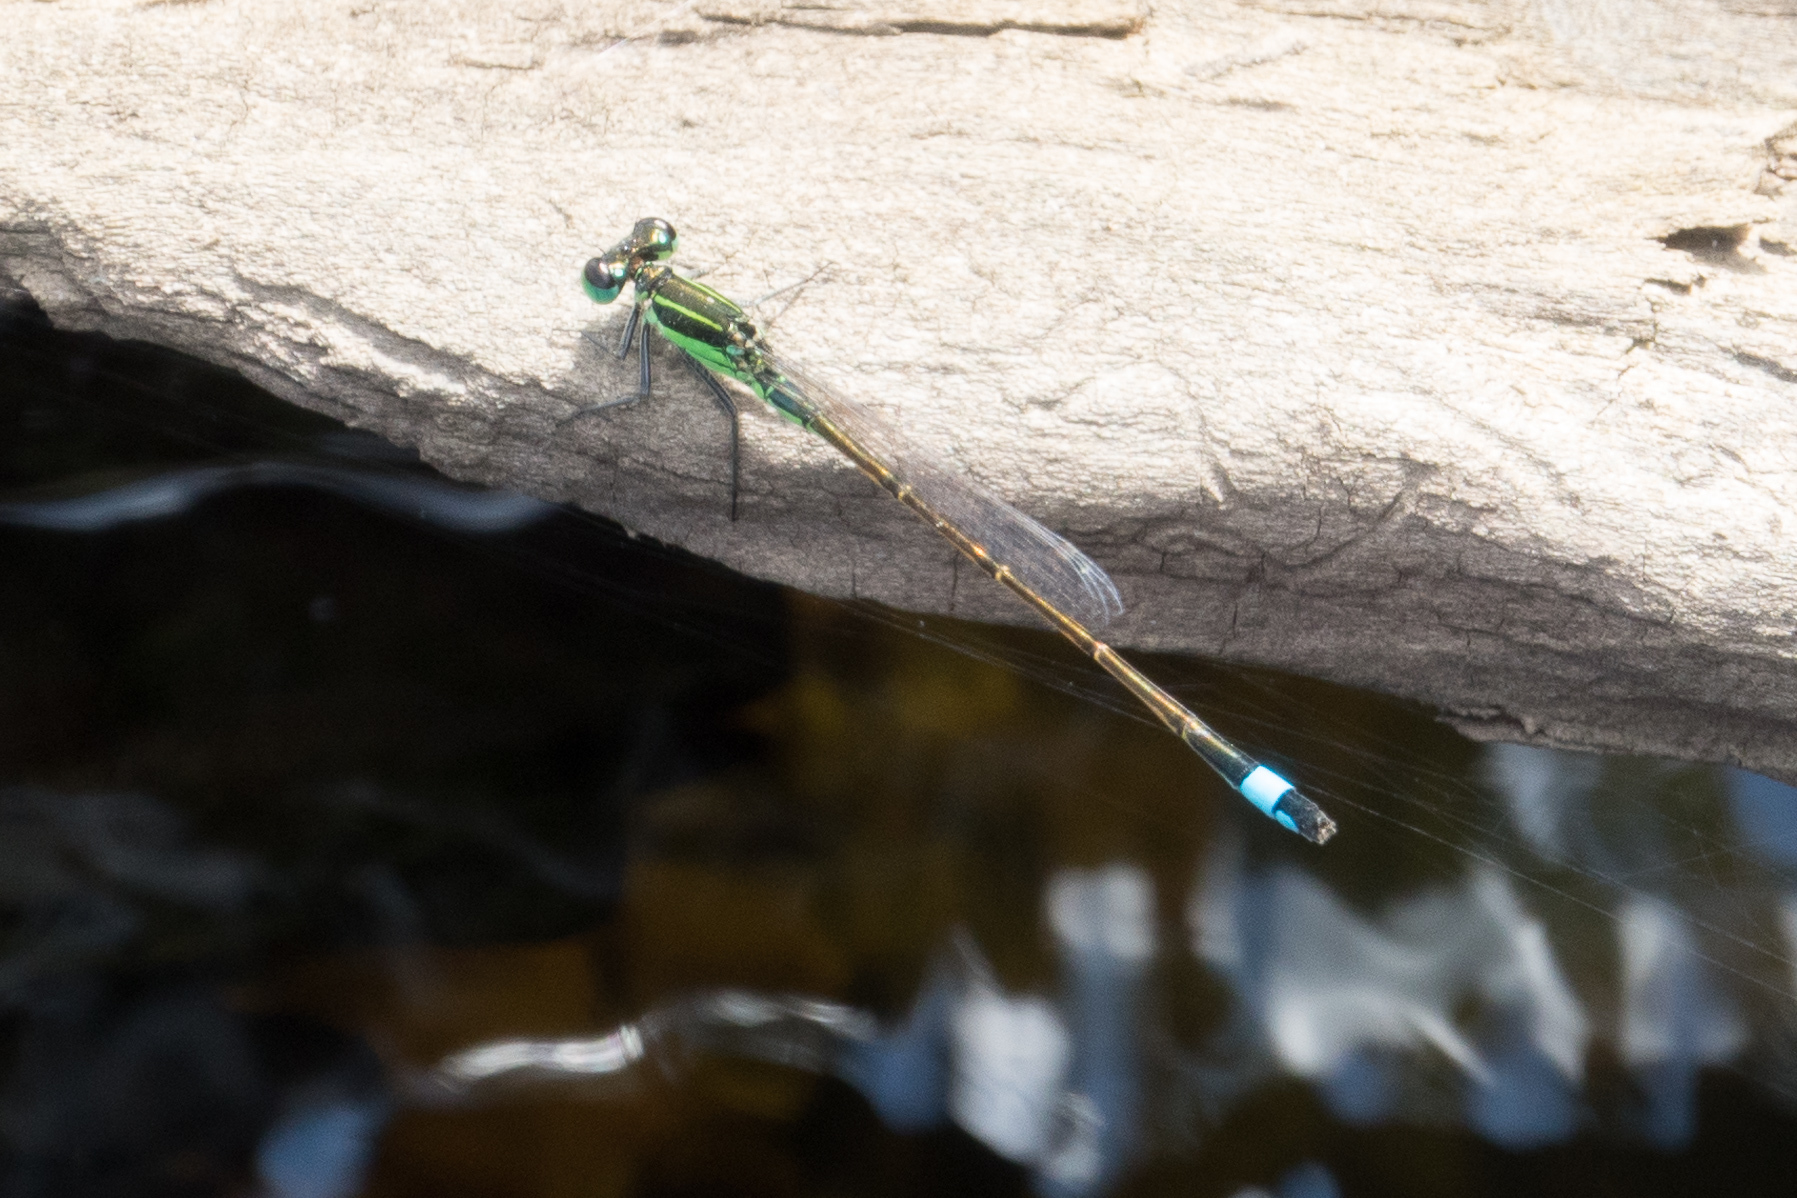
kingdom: Animalia
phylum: Arthropoda
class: Insecta
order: Odonata
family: Coenagrionidae
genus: Ischnura
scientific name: Ischnura ramburii
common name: Rambur's forktail
